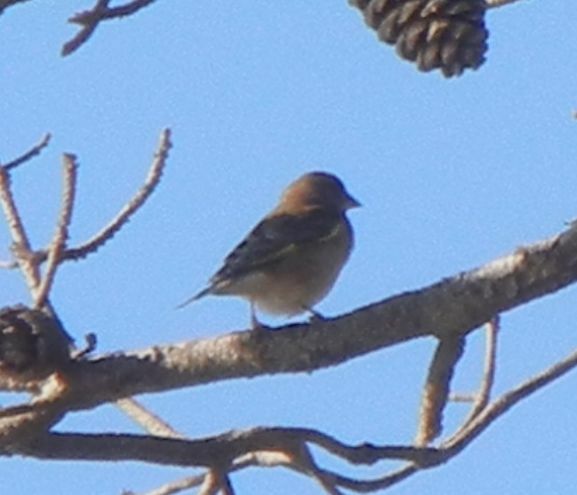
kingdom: Plantae
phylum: Tracheophyta
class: Liliopsida
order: Poales
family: Poaceae
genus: Chloris
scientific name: Chloris chloris
